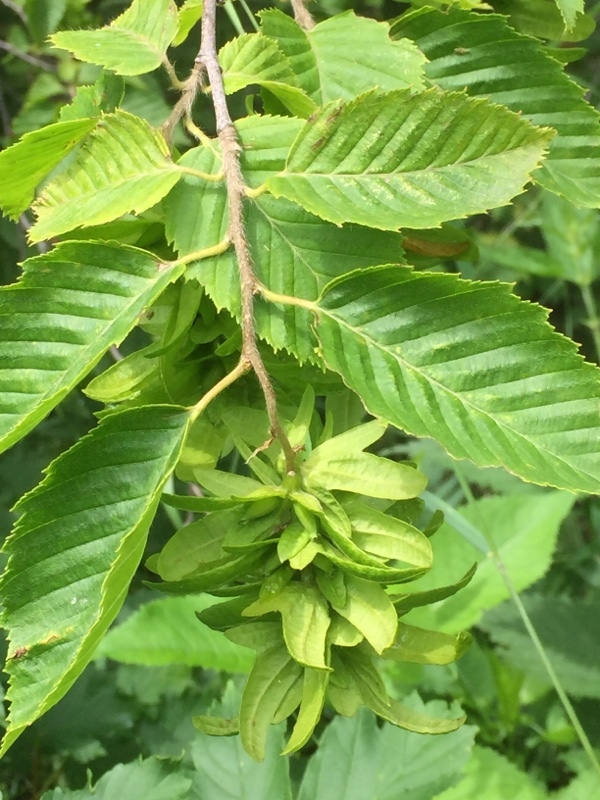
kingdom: Plantae
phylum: Tracheophyta
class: Magnoliopsida
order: Fagales
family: Betulaceae
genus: Carpinus
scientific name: Carpinus betulus
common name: Hornbeam
